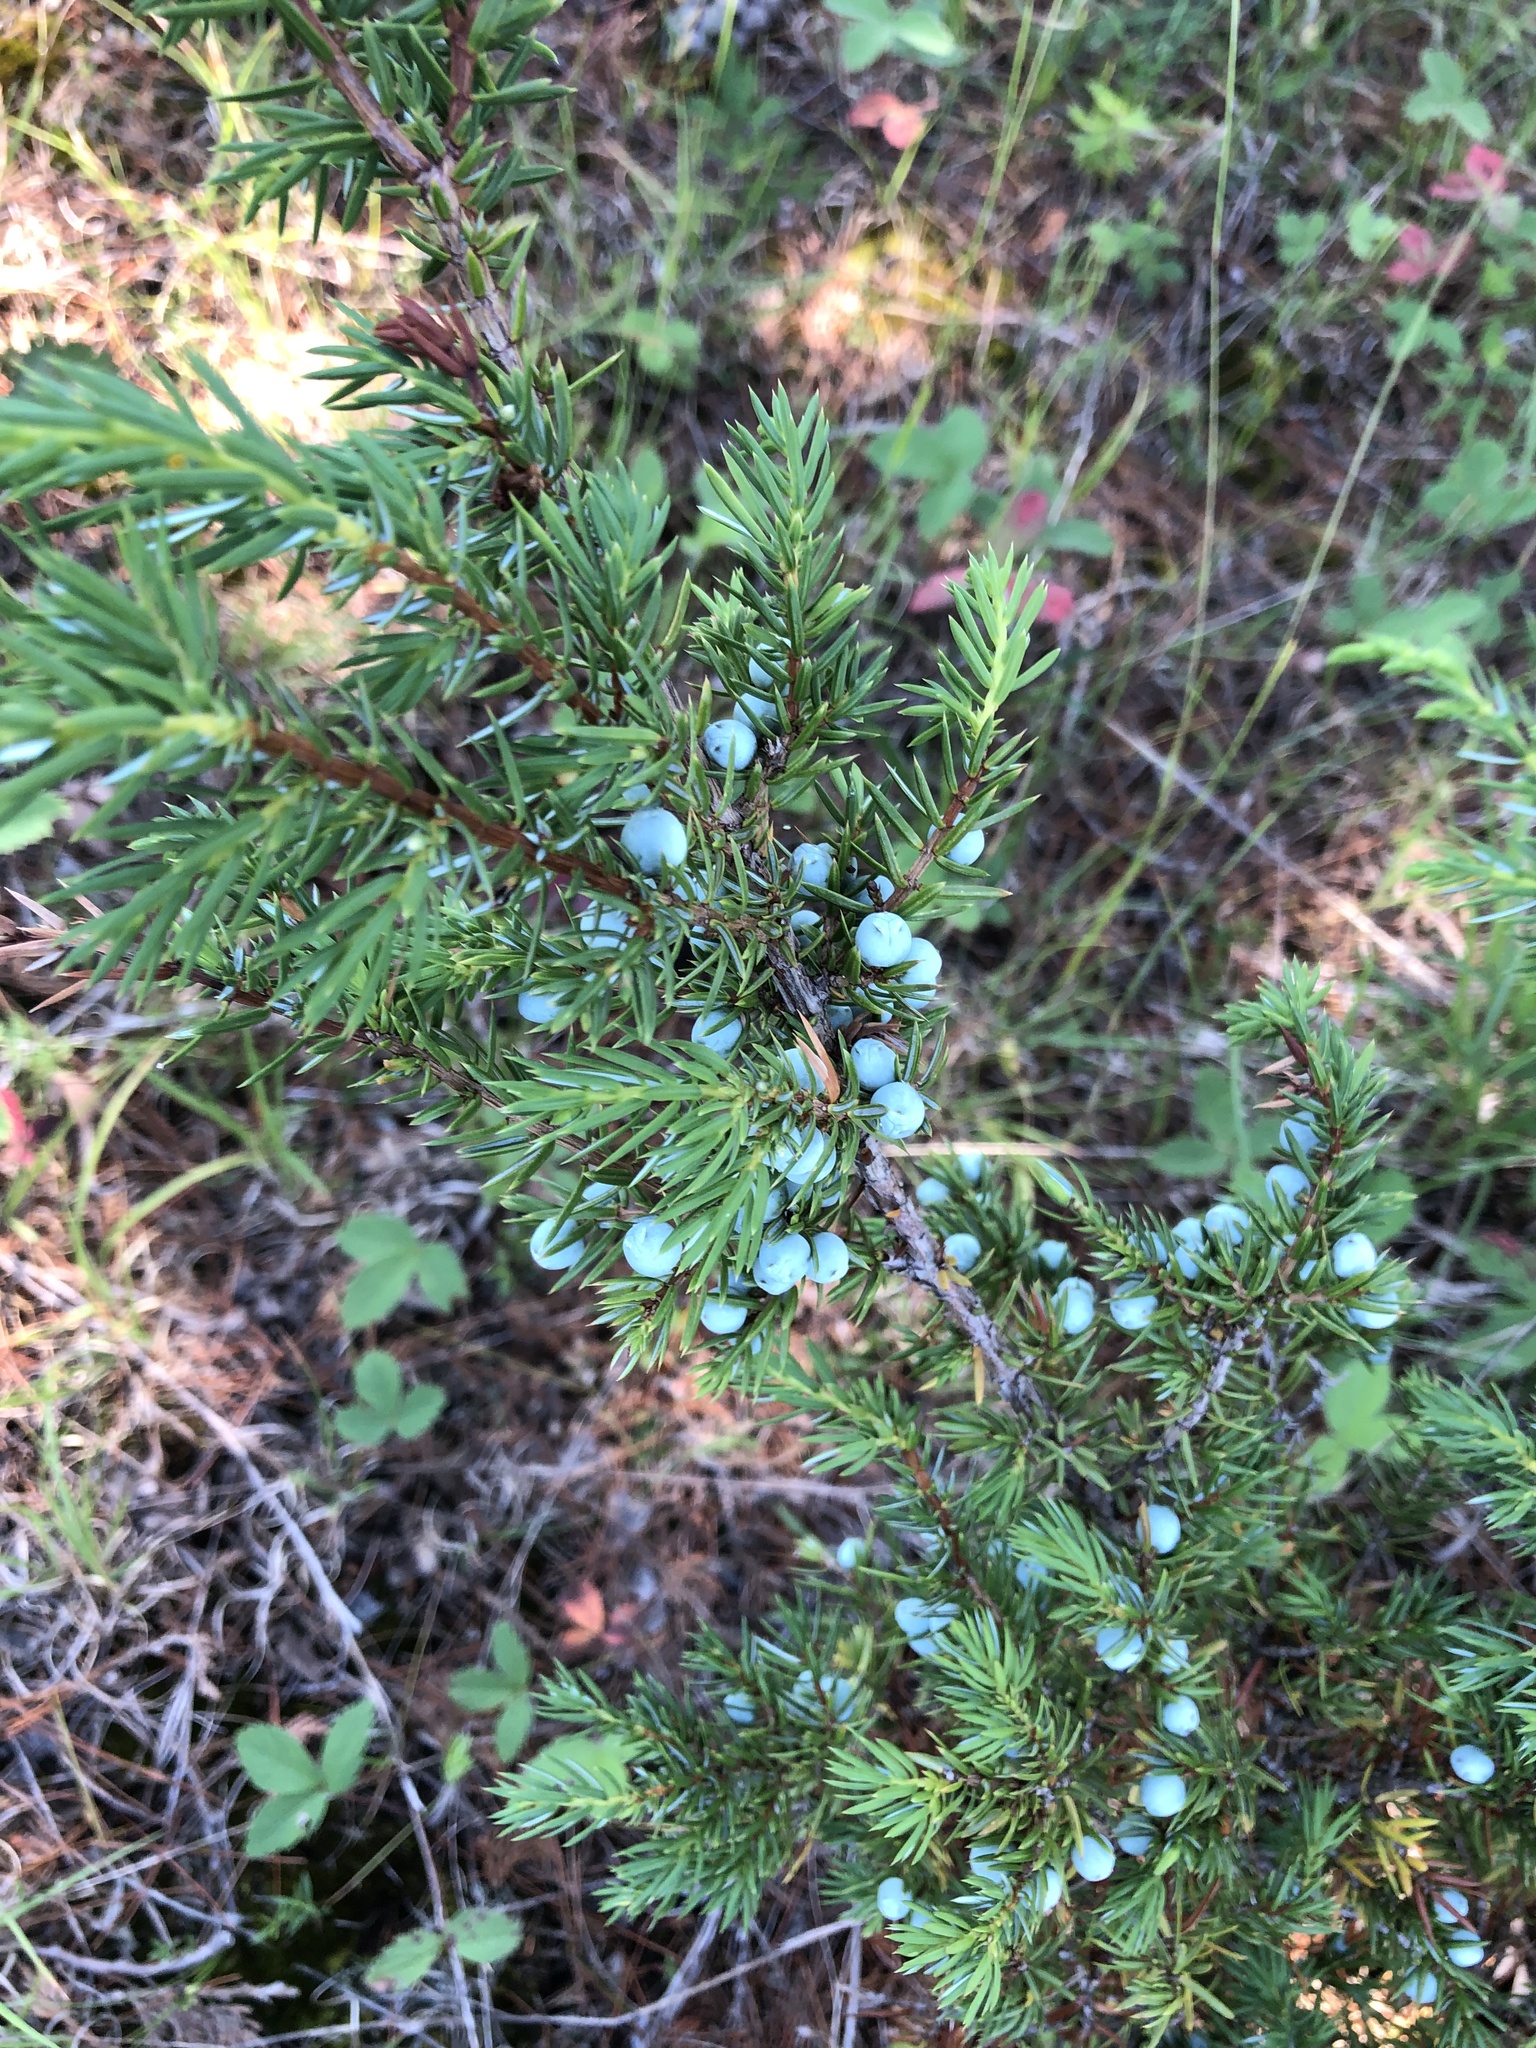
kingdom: Plantae
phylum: Tracheophyta
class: Pinopsida
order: Pinales
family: Cupressaceae
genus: Juniperus
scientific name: Juniperus communis
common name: Common juniper
